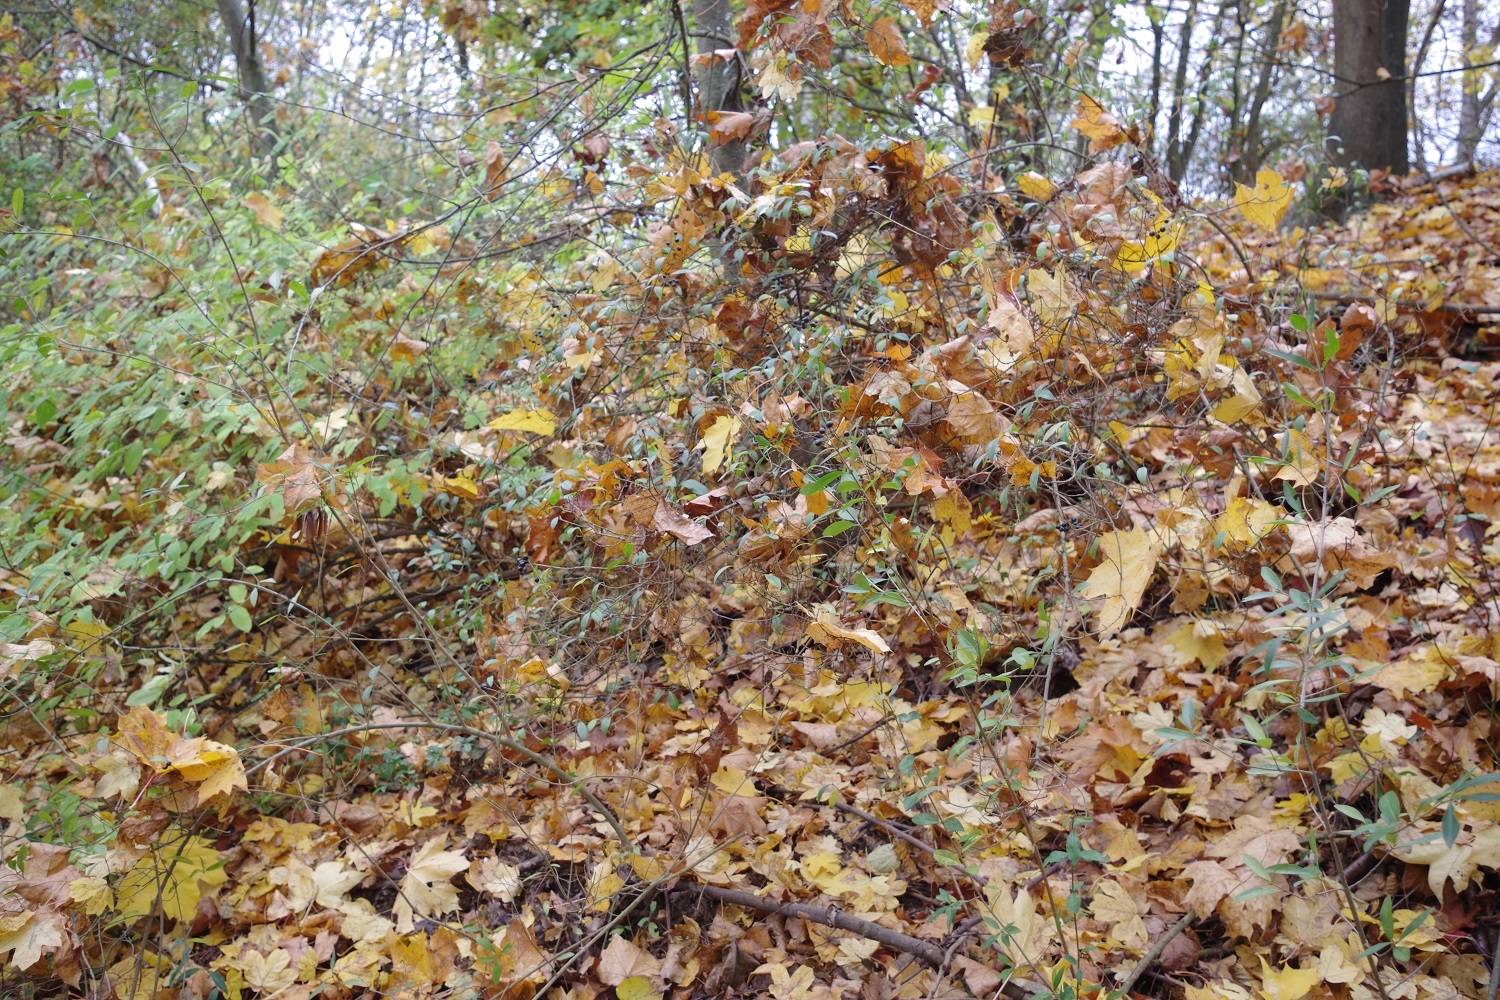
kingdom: Plantae
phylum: Tracheophyta
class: Magnoliopsida
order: Lamiales
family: Oleaceae
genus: Ligustrum
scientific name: Ligustrum vulgare
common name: Wild privet
